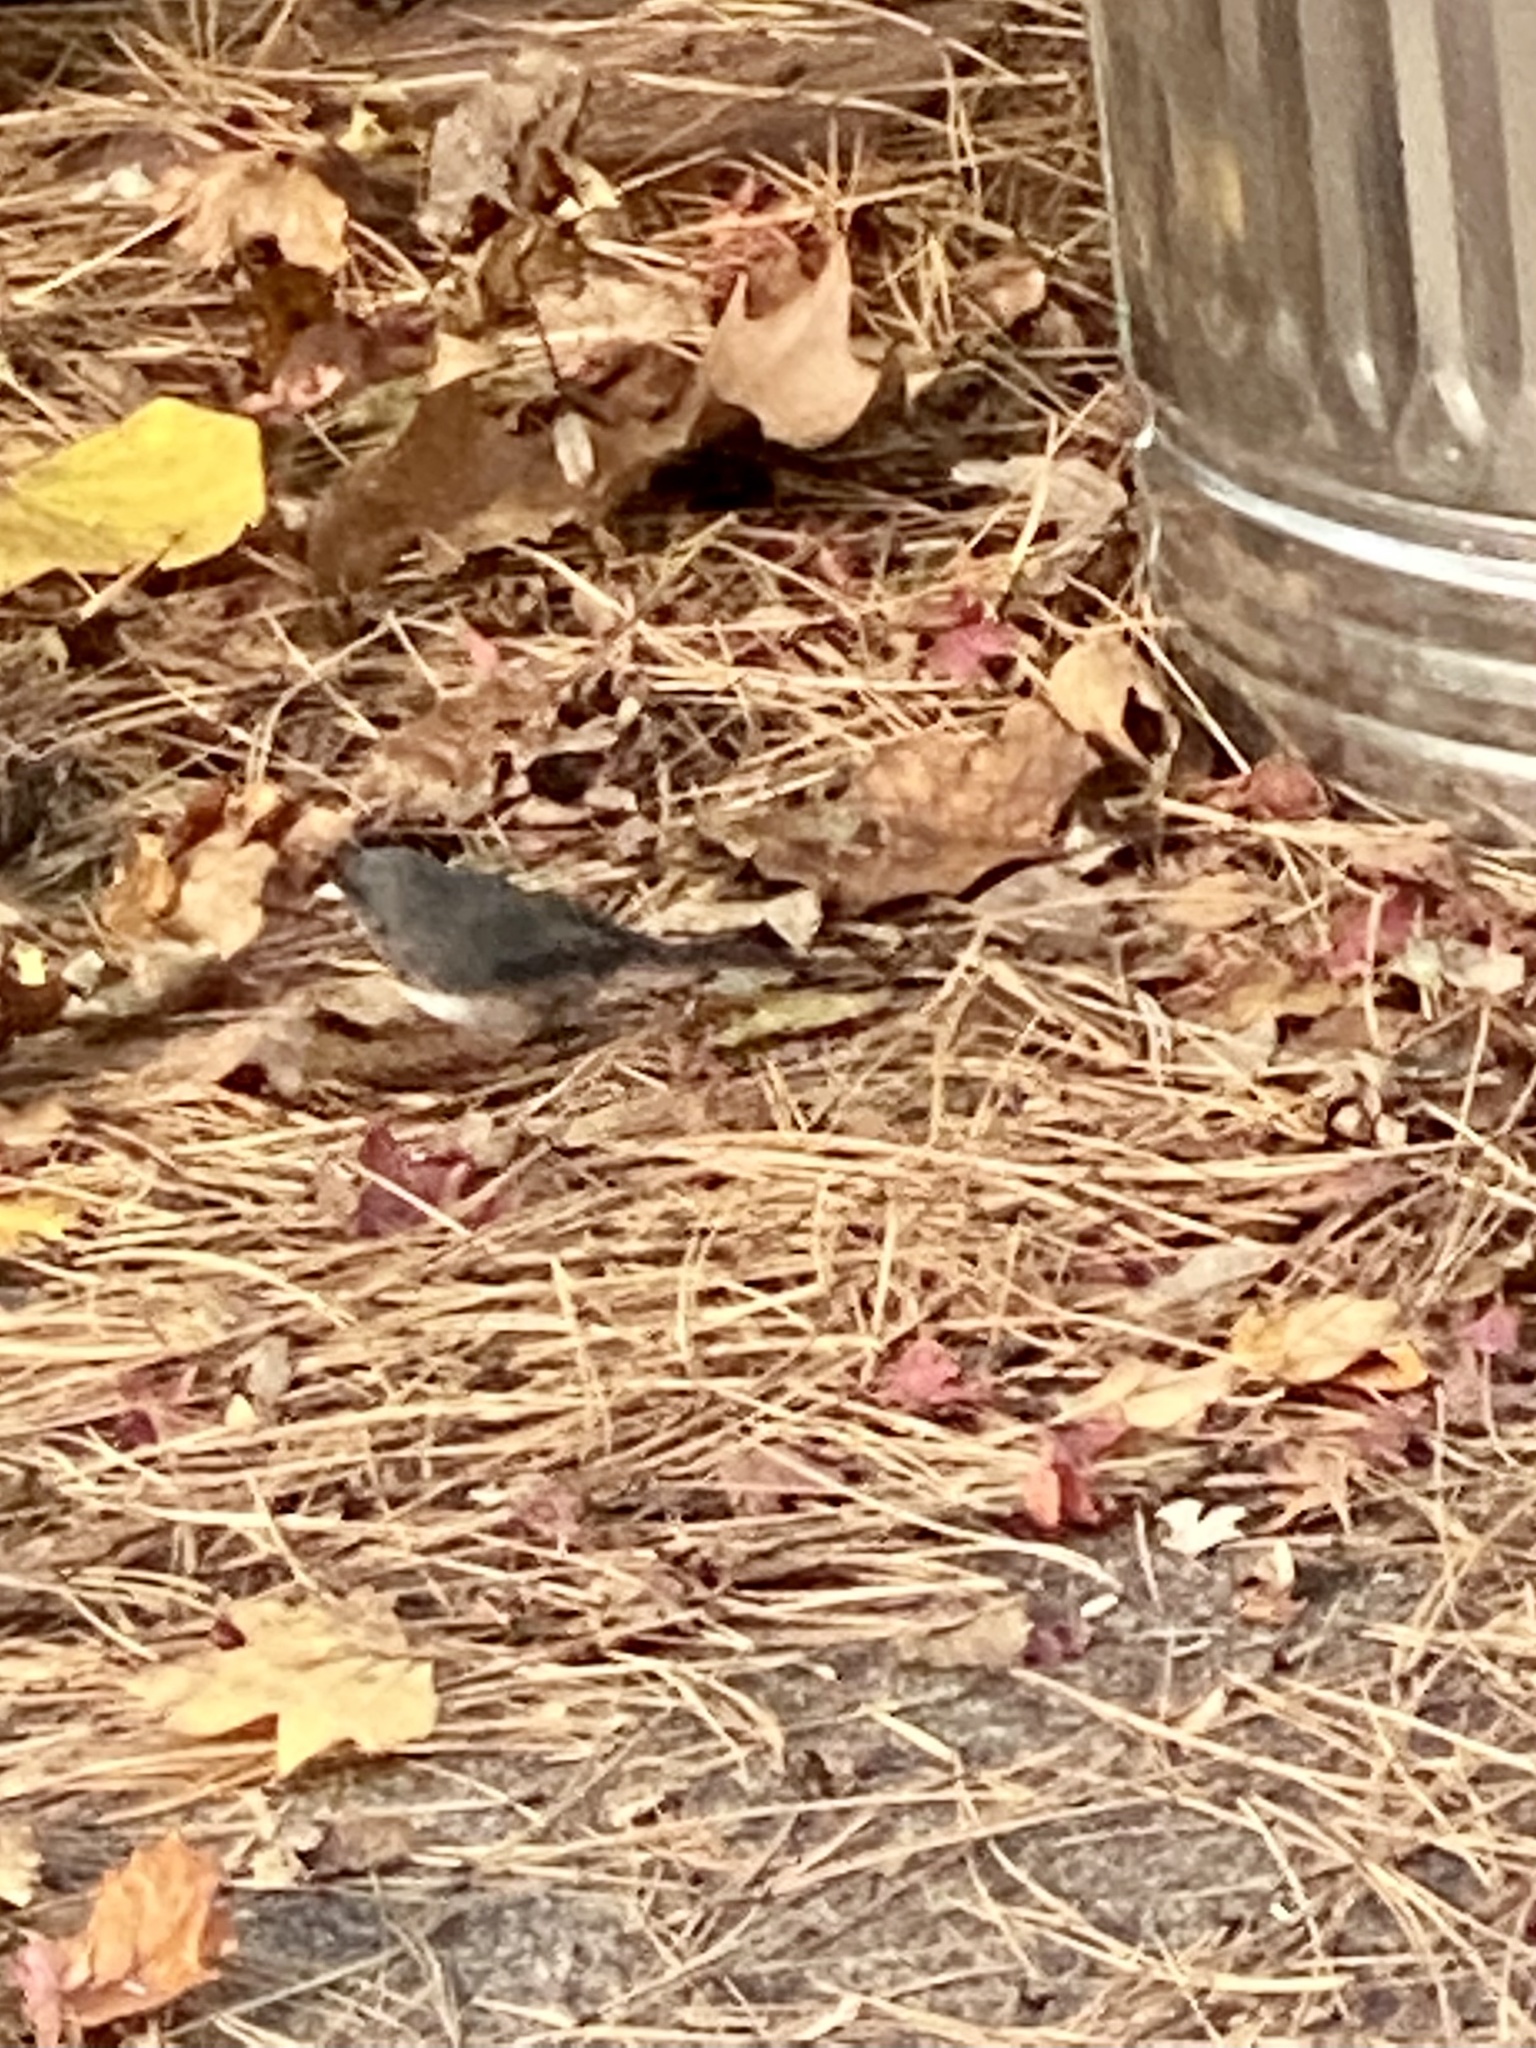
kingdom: Animalia
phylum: Chordata
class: Aves
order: Passeriformes
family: Passerellidae
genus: Junco
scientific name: Junco hyemalis
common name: Dark-eyed junco
